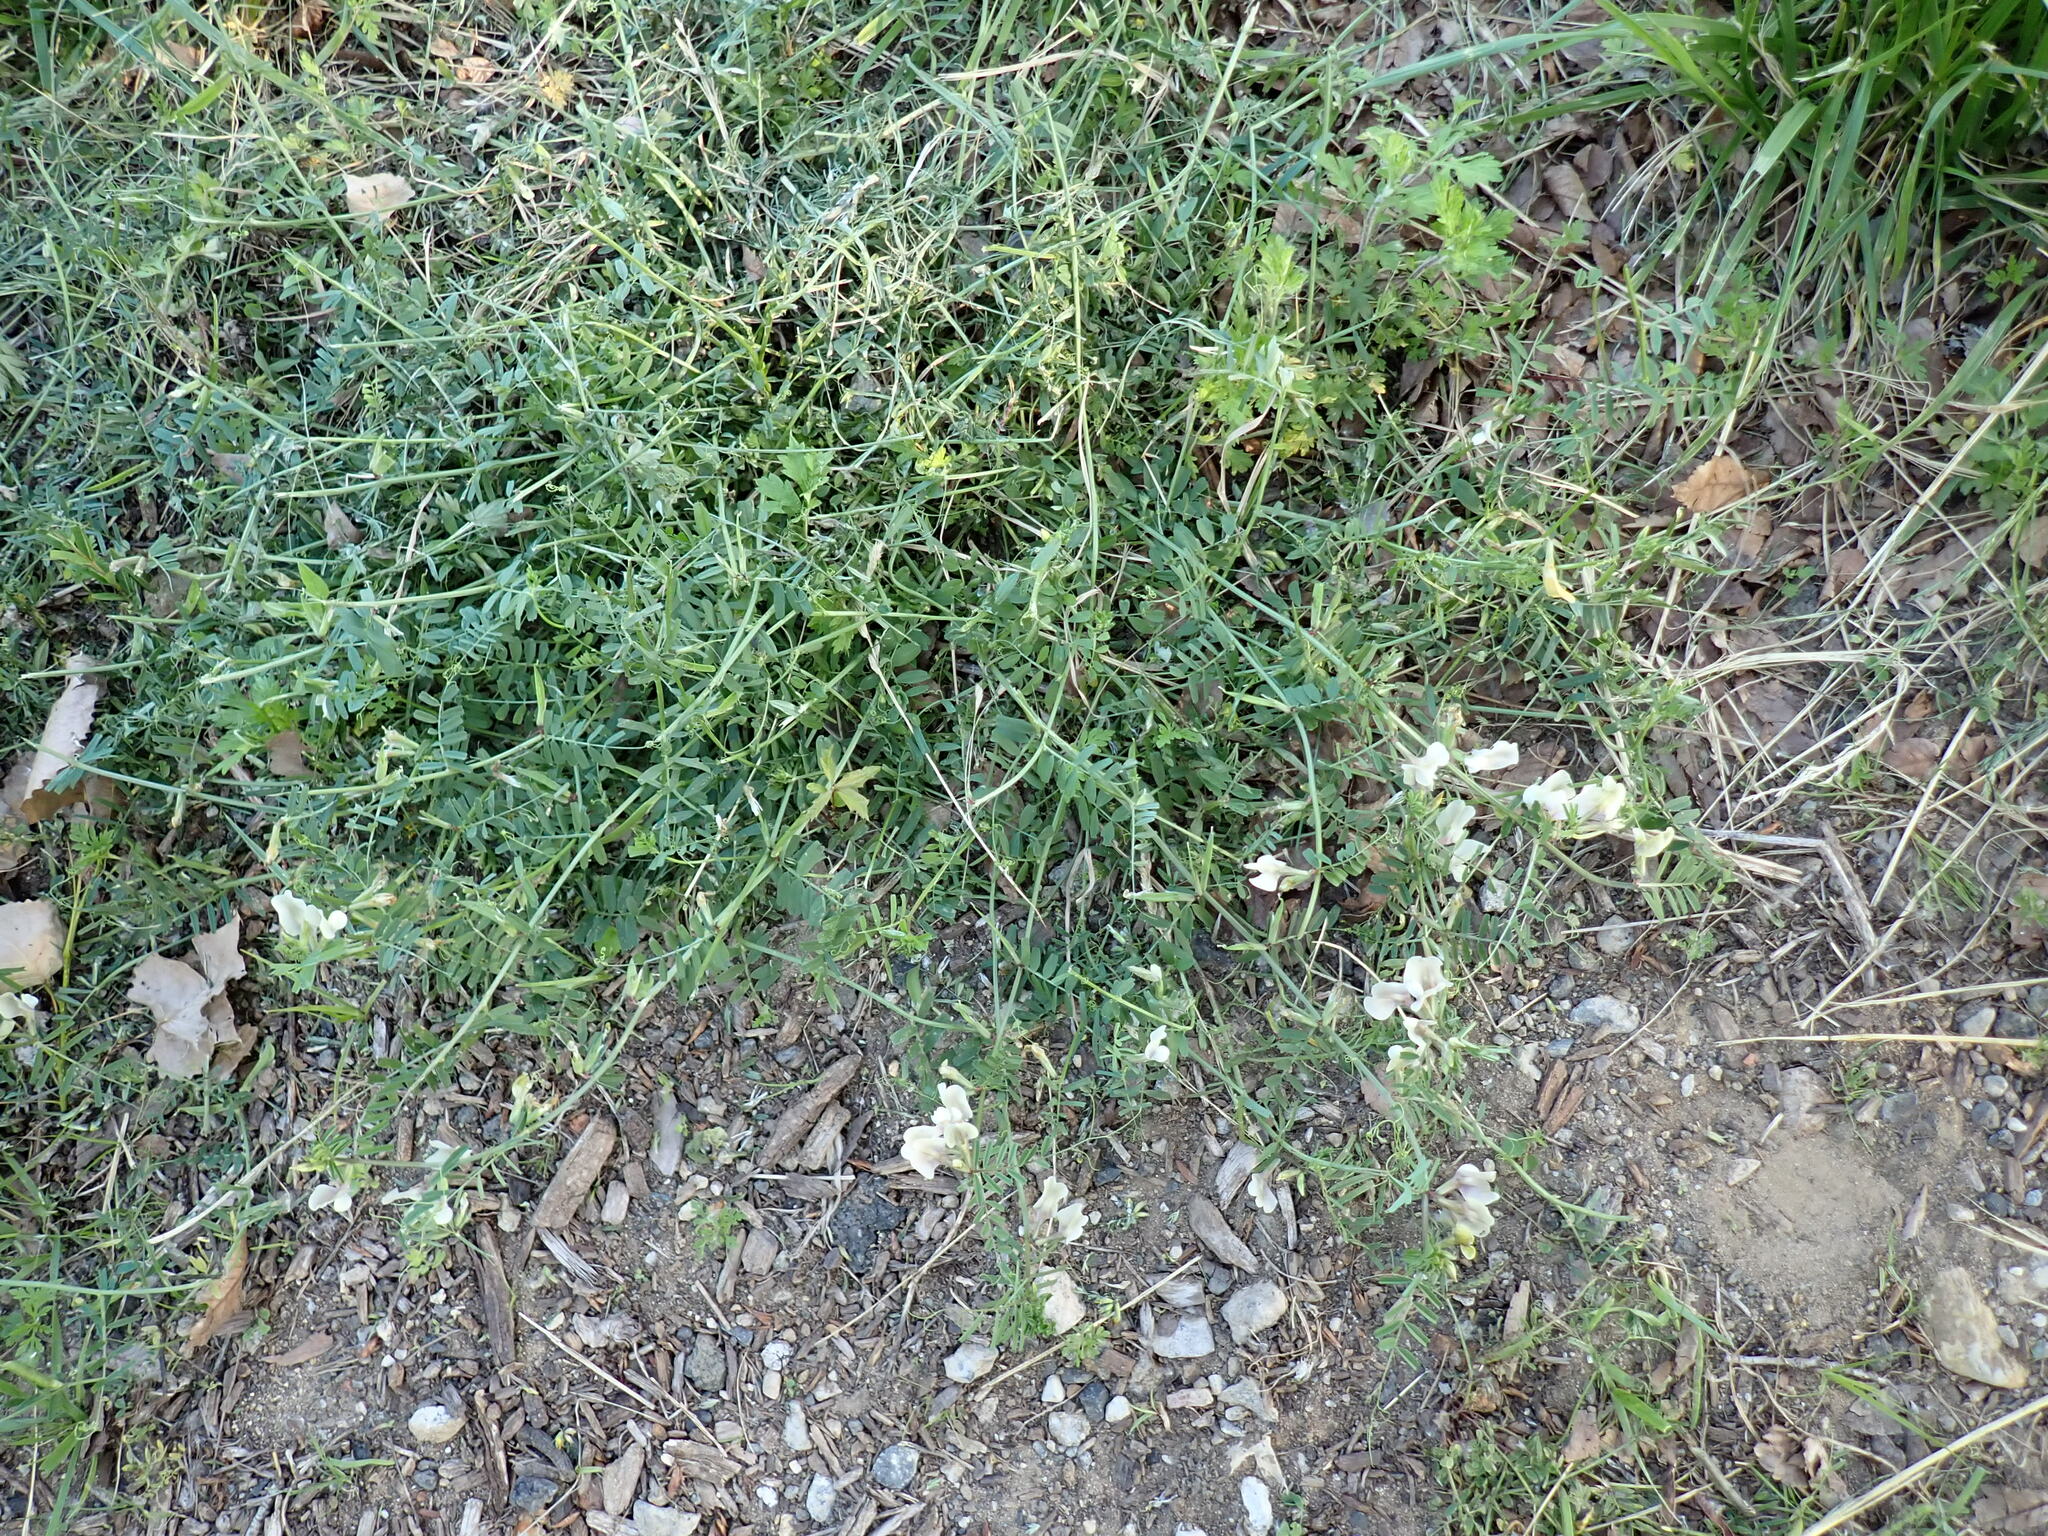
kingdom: Plantae
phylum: Tracheophyta
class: Magnoliopsida
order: Fabales
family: Fabaceae
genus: Vicia
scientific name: Vicia grandiflora
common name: Large yellow vetch
